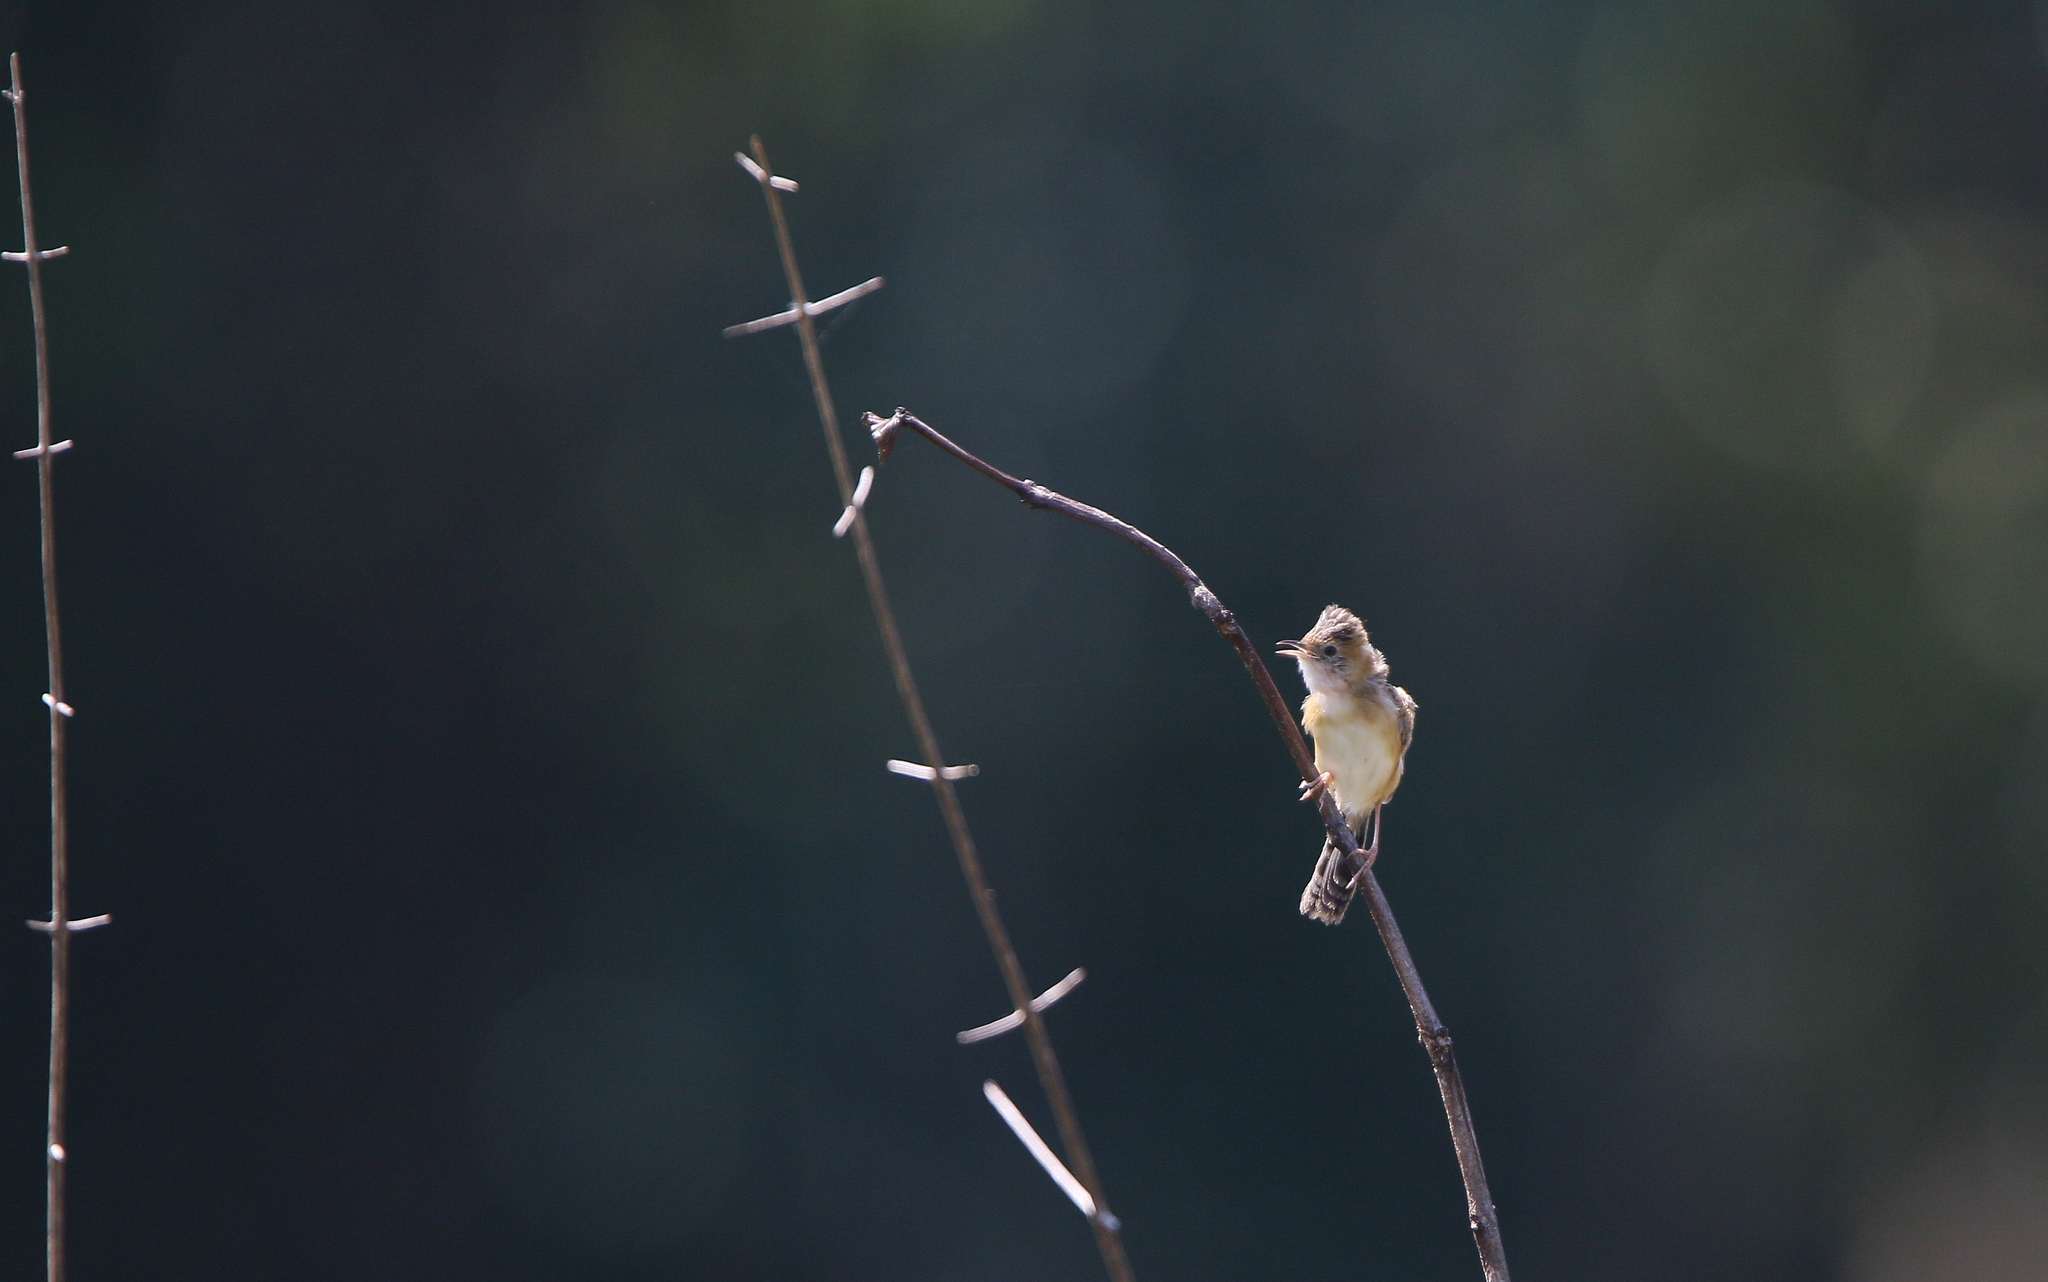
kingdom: Animalia
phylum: Chordata
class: Aves
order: Passeriformes
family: Cisticolidae
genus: Cisticola
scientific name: Cisticola exilis
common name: Golden-headed cisticola
